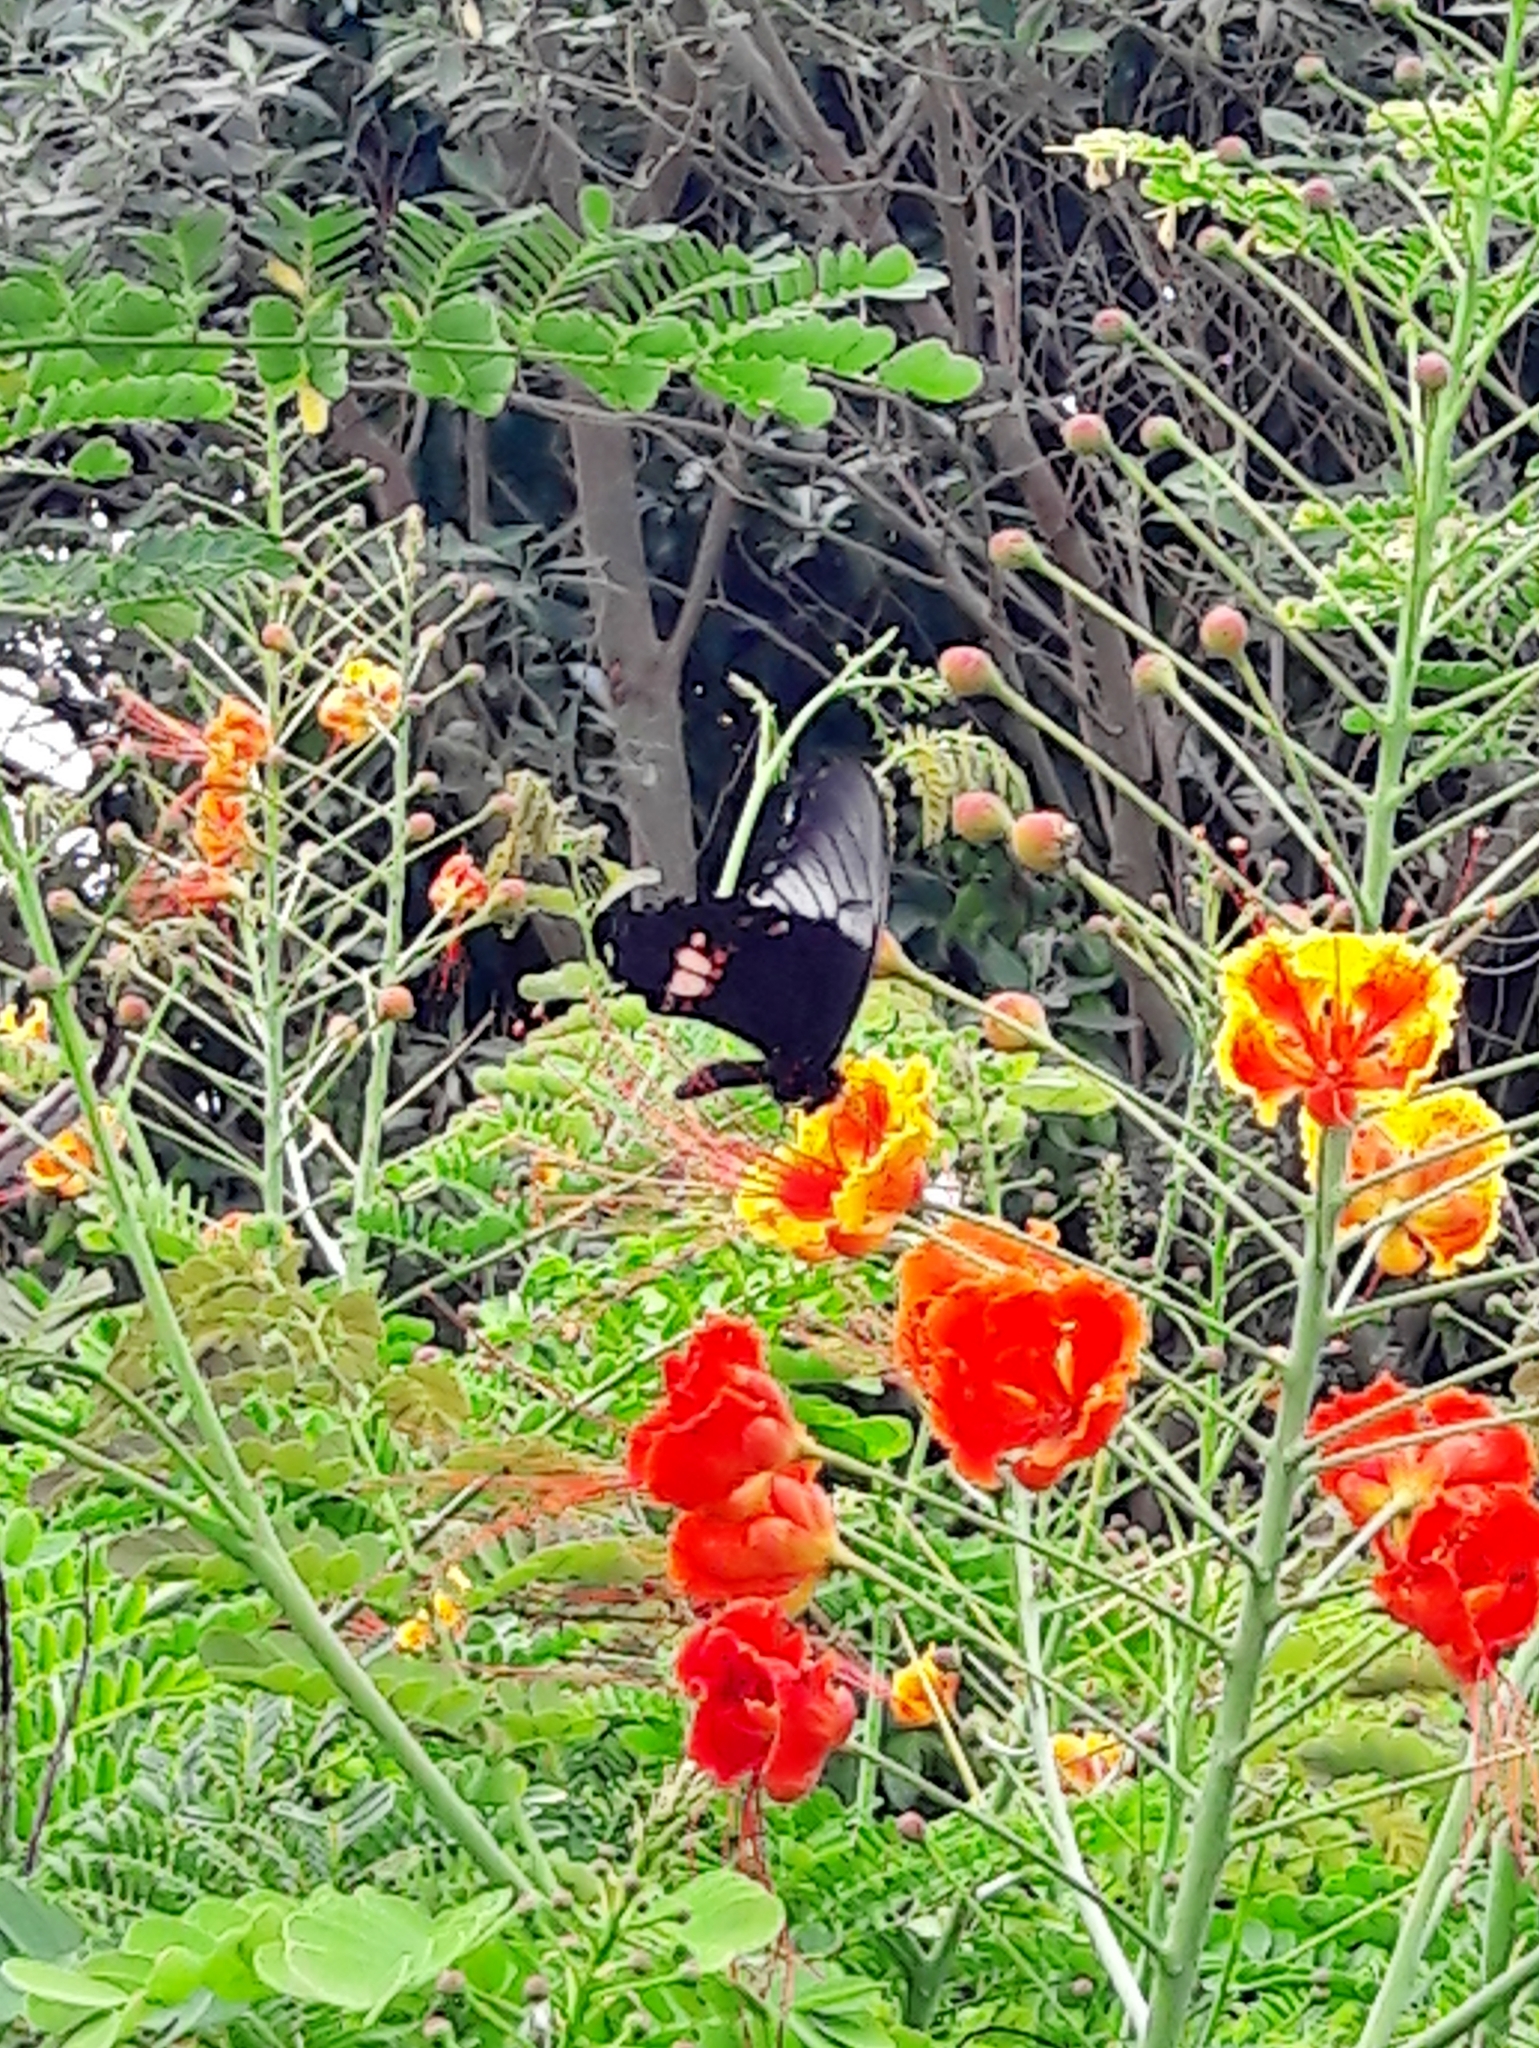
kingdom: Animalia
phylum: Arthropoda
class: Insecta
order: Lepidoptera
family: Papilionidae
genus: Papilio
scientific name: Papilio anchisiades
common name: Idaes swallowtail
